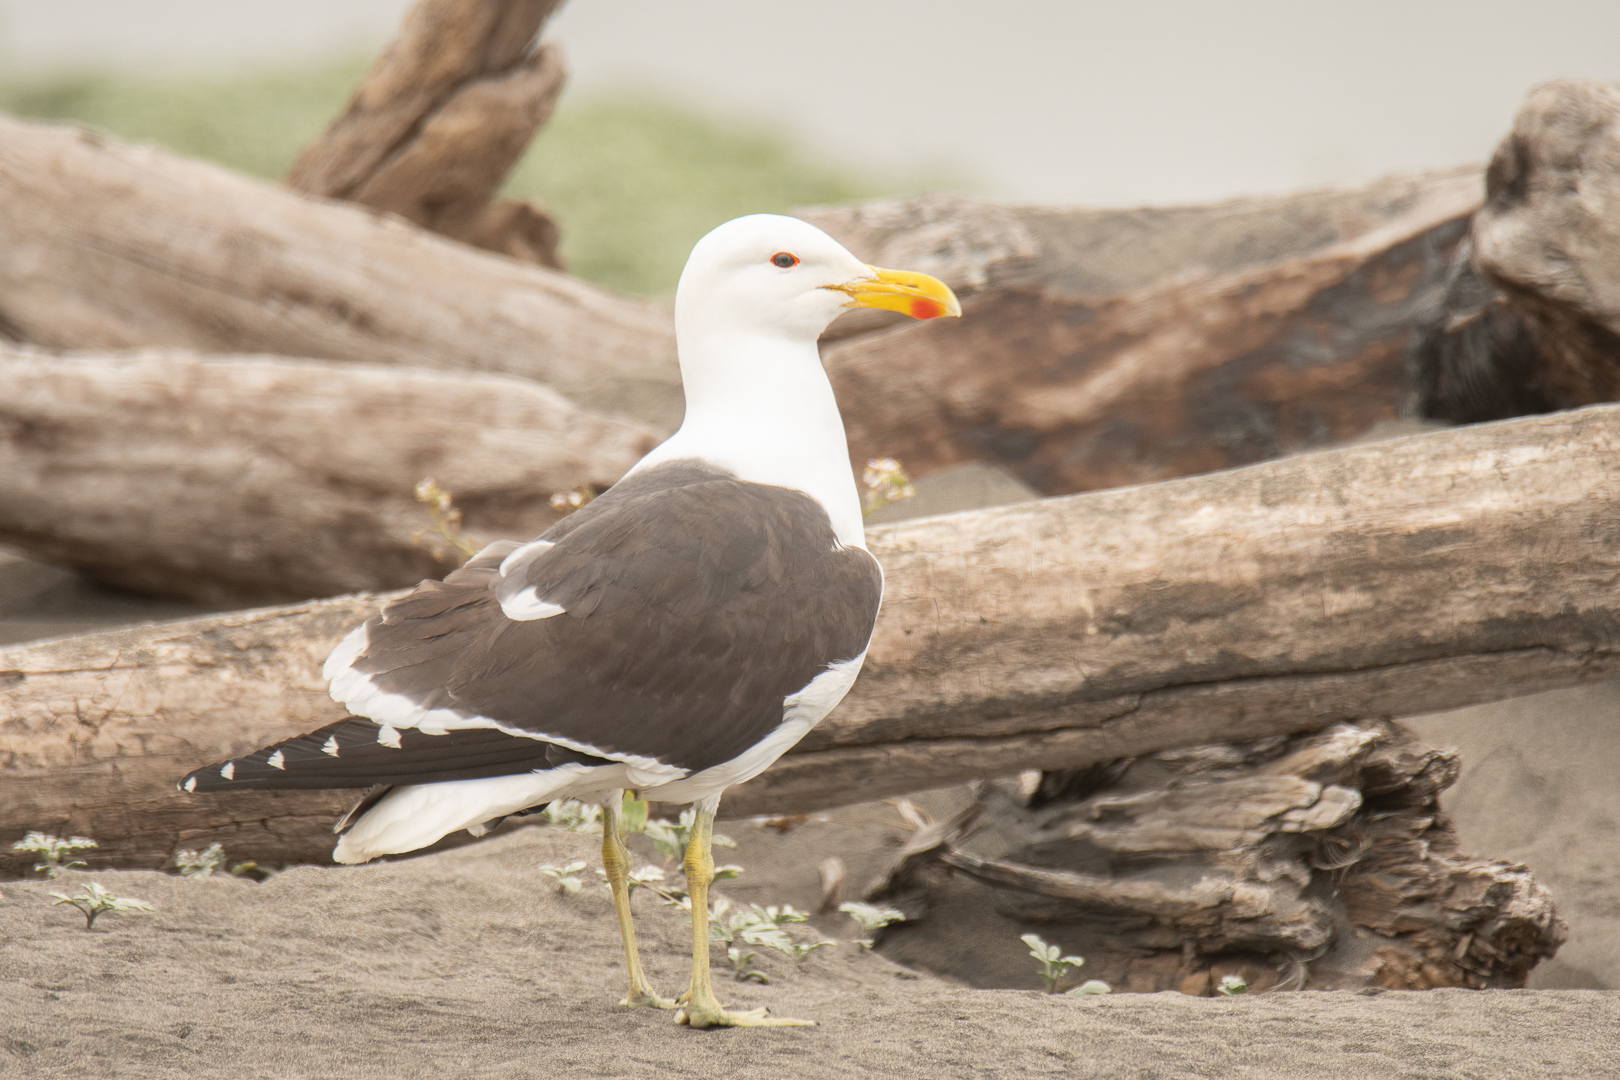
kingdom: Animalia
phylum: Chordata
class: Aves
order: Charadriiformes
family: Laridae
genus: Larus
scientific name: Larus dominicanus
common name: Kelp gull
